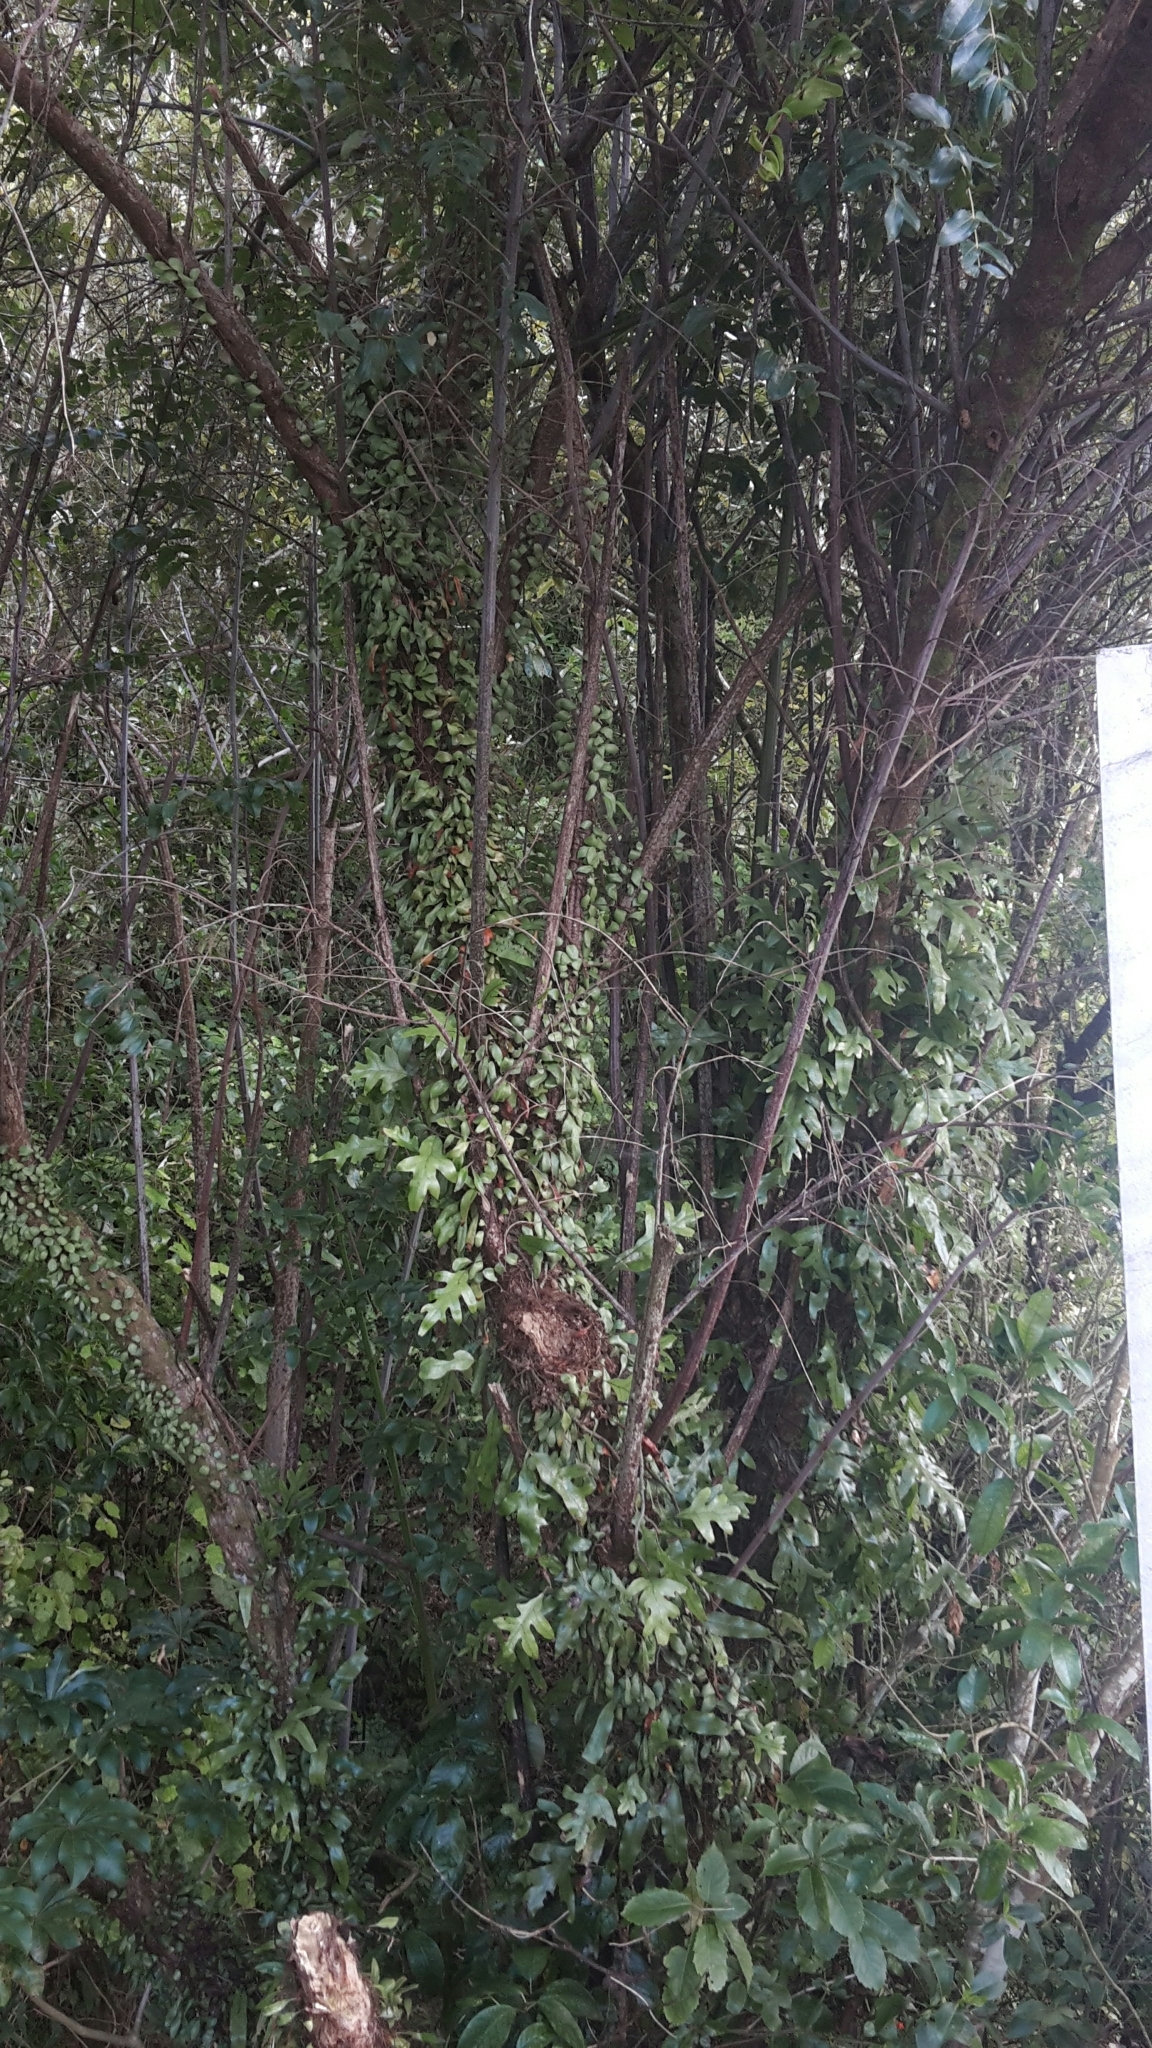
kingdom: Plantae
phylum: Tracheophyta
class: Magnoliopsida
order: Cucurbitales
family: Coriariaceae
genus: Coriaria
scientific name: Coriaria arborea
